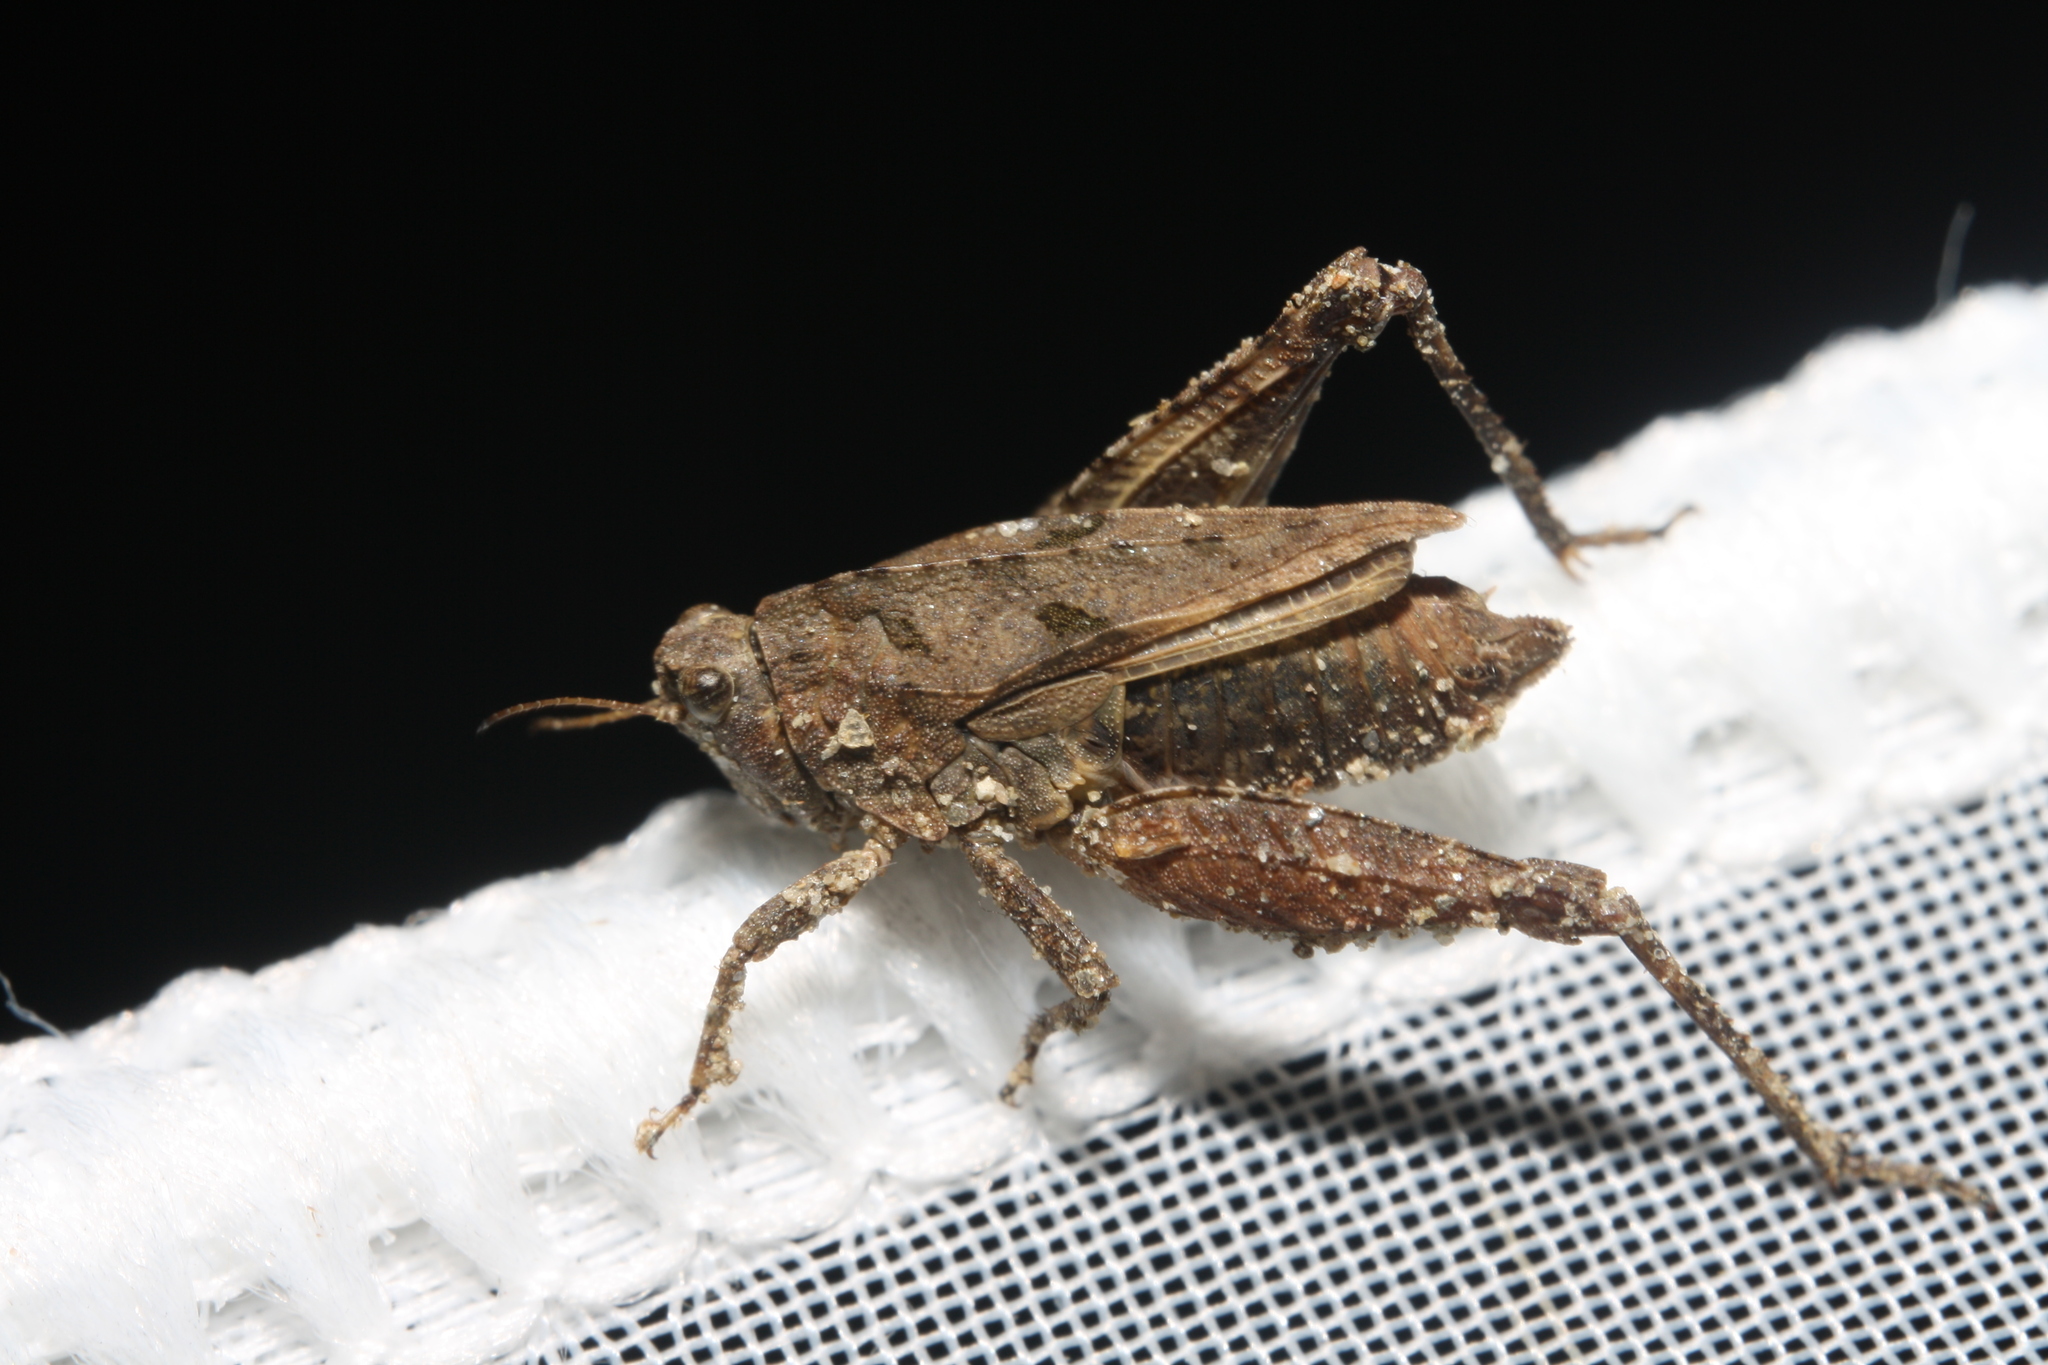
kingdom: Animalia
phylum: Arthropoda
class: Insecta
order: Orthoptera
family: Tetrigidae
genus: Tetrix
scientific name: Tetrix tenuicornis
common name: Long-horned groundhopper
